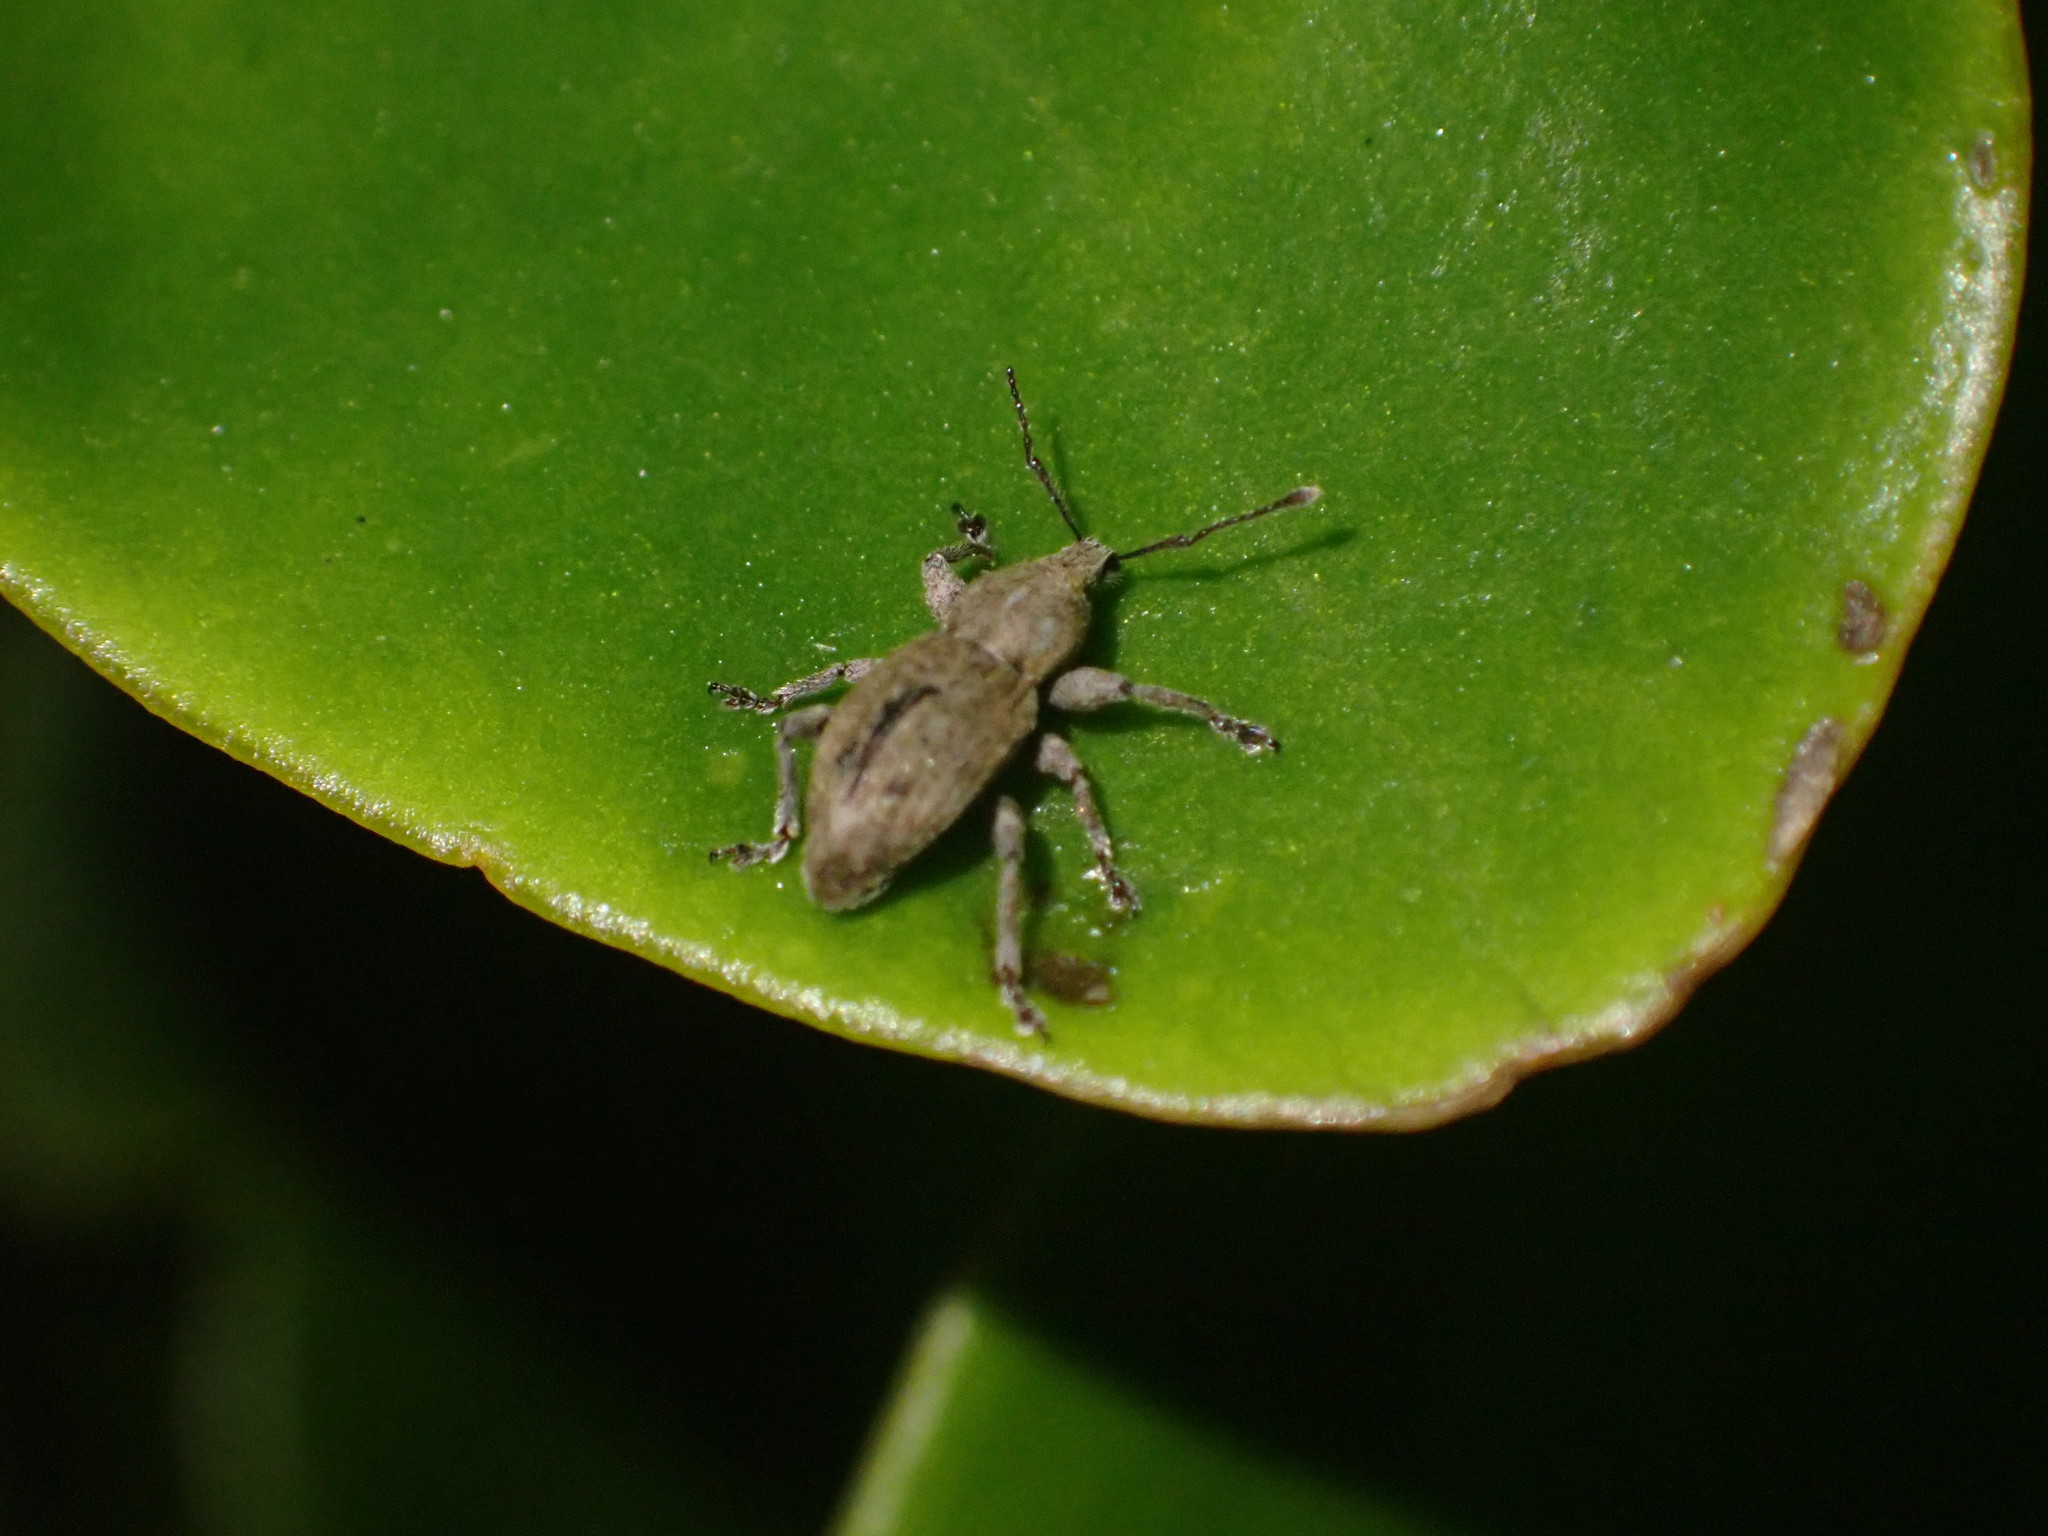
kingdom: Animalia
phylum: Arthropoda
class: Insecta
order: Coleoptera
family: Curculionidae
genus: Chalepistes
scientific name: Chalepistes compressus
